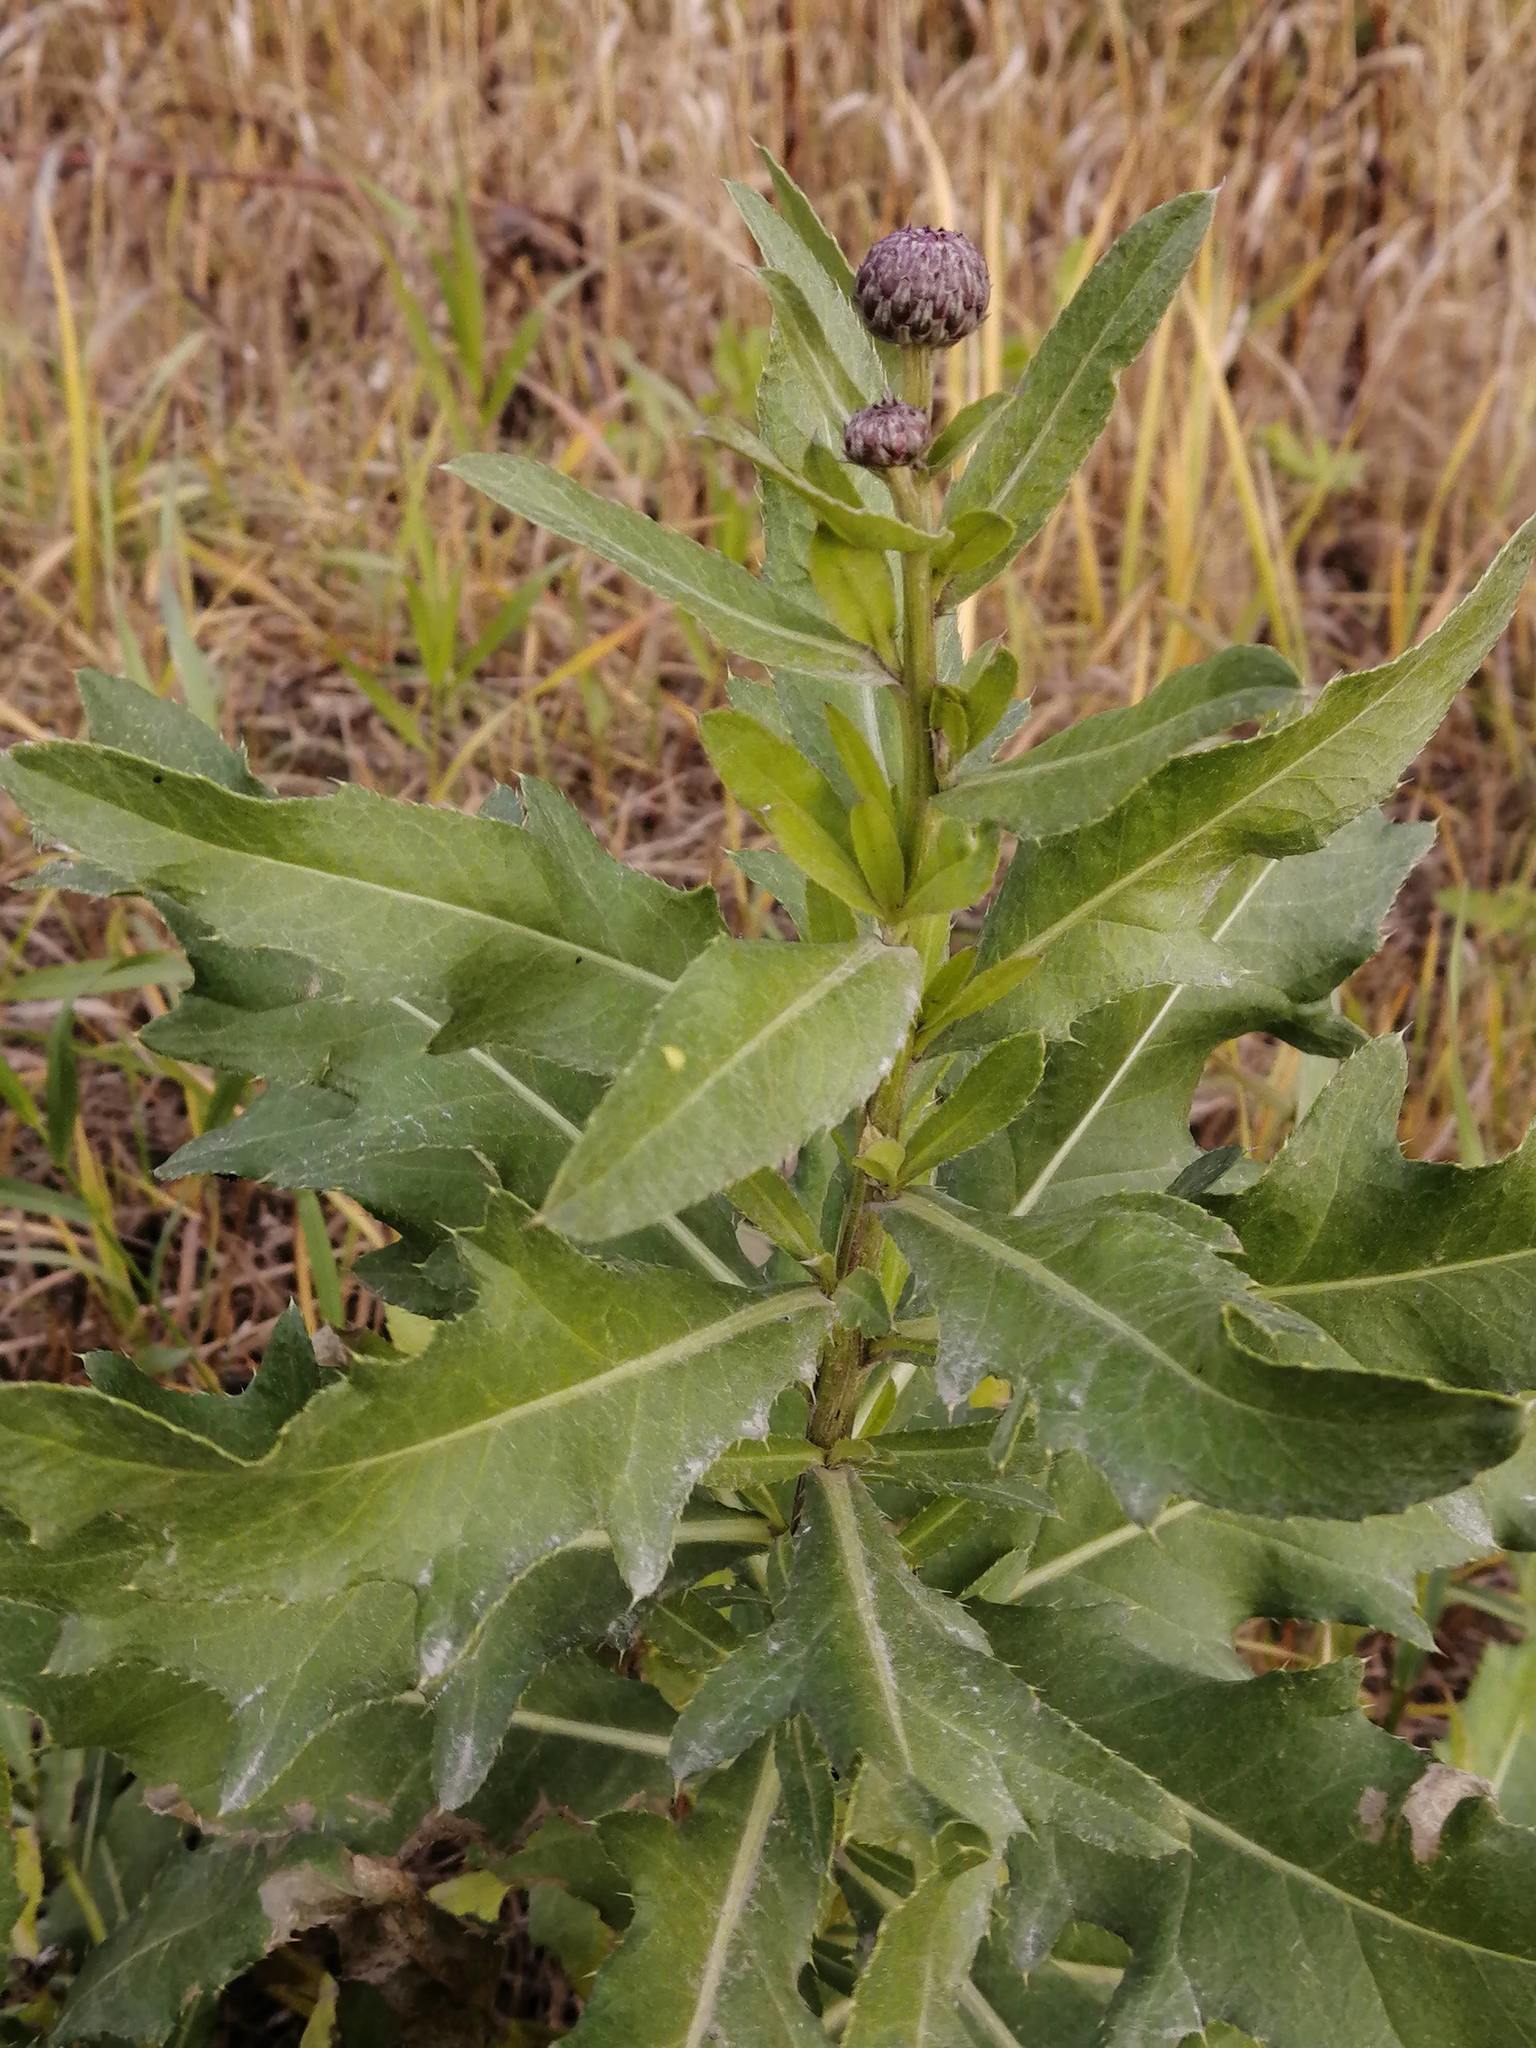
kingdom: Plantae
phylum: Tracheophyta
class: Magnoliopsida
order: Asterales
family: Asteraceae
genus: Cirsium
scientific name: Cirsium arvense
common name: Creeping thistle
